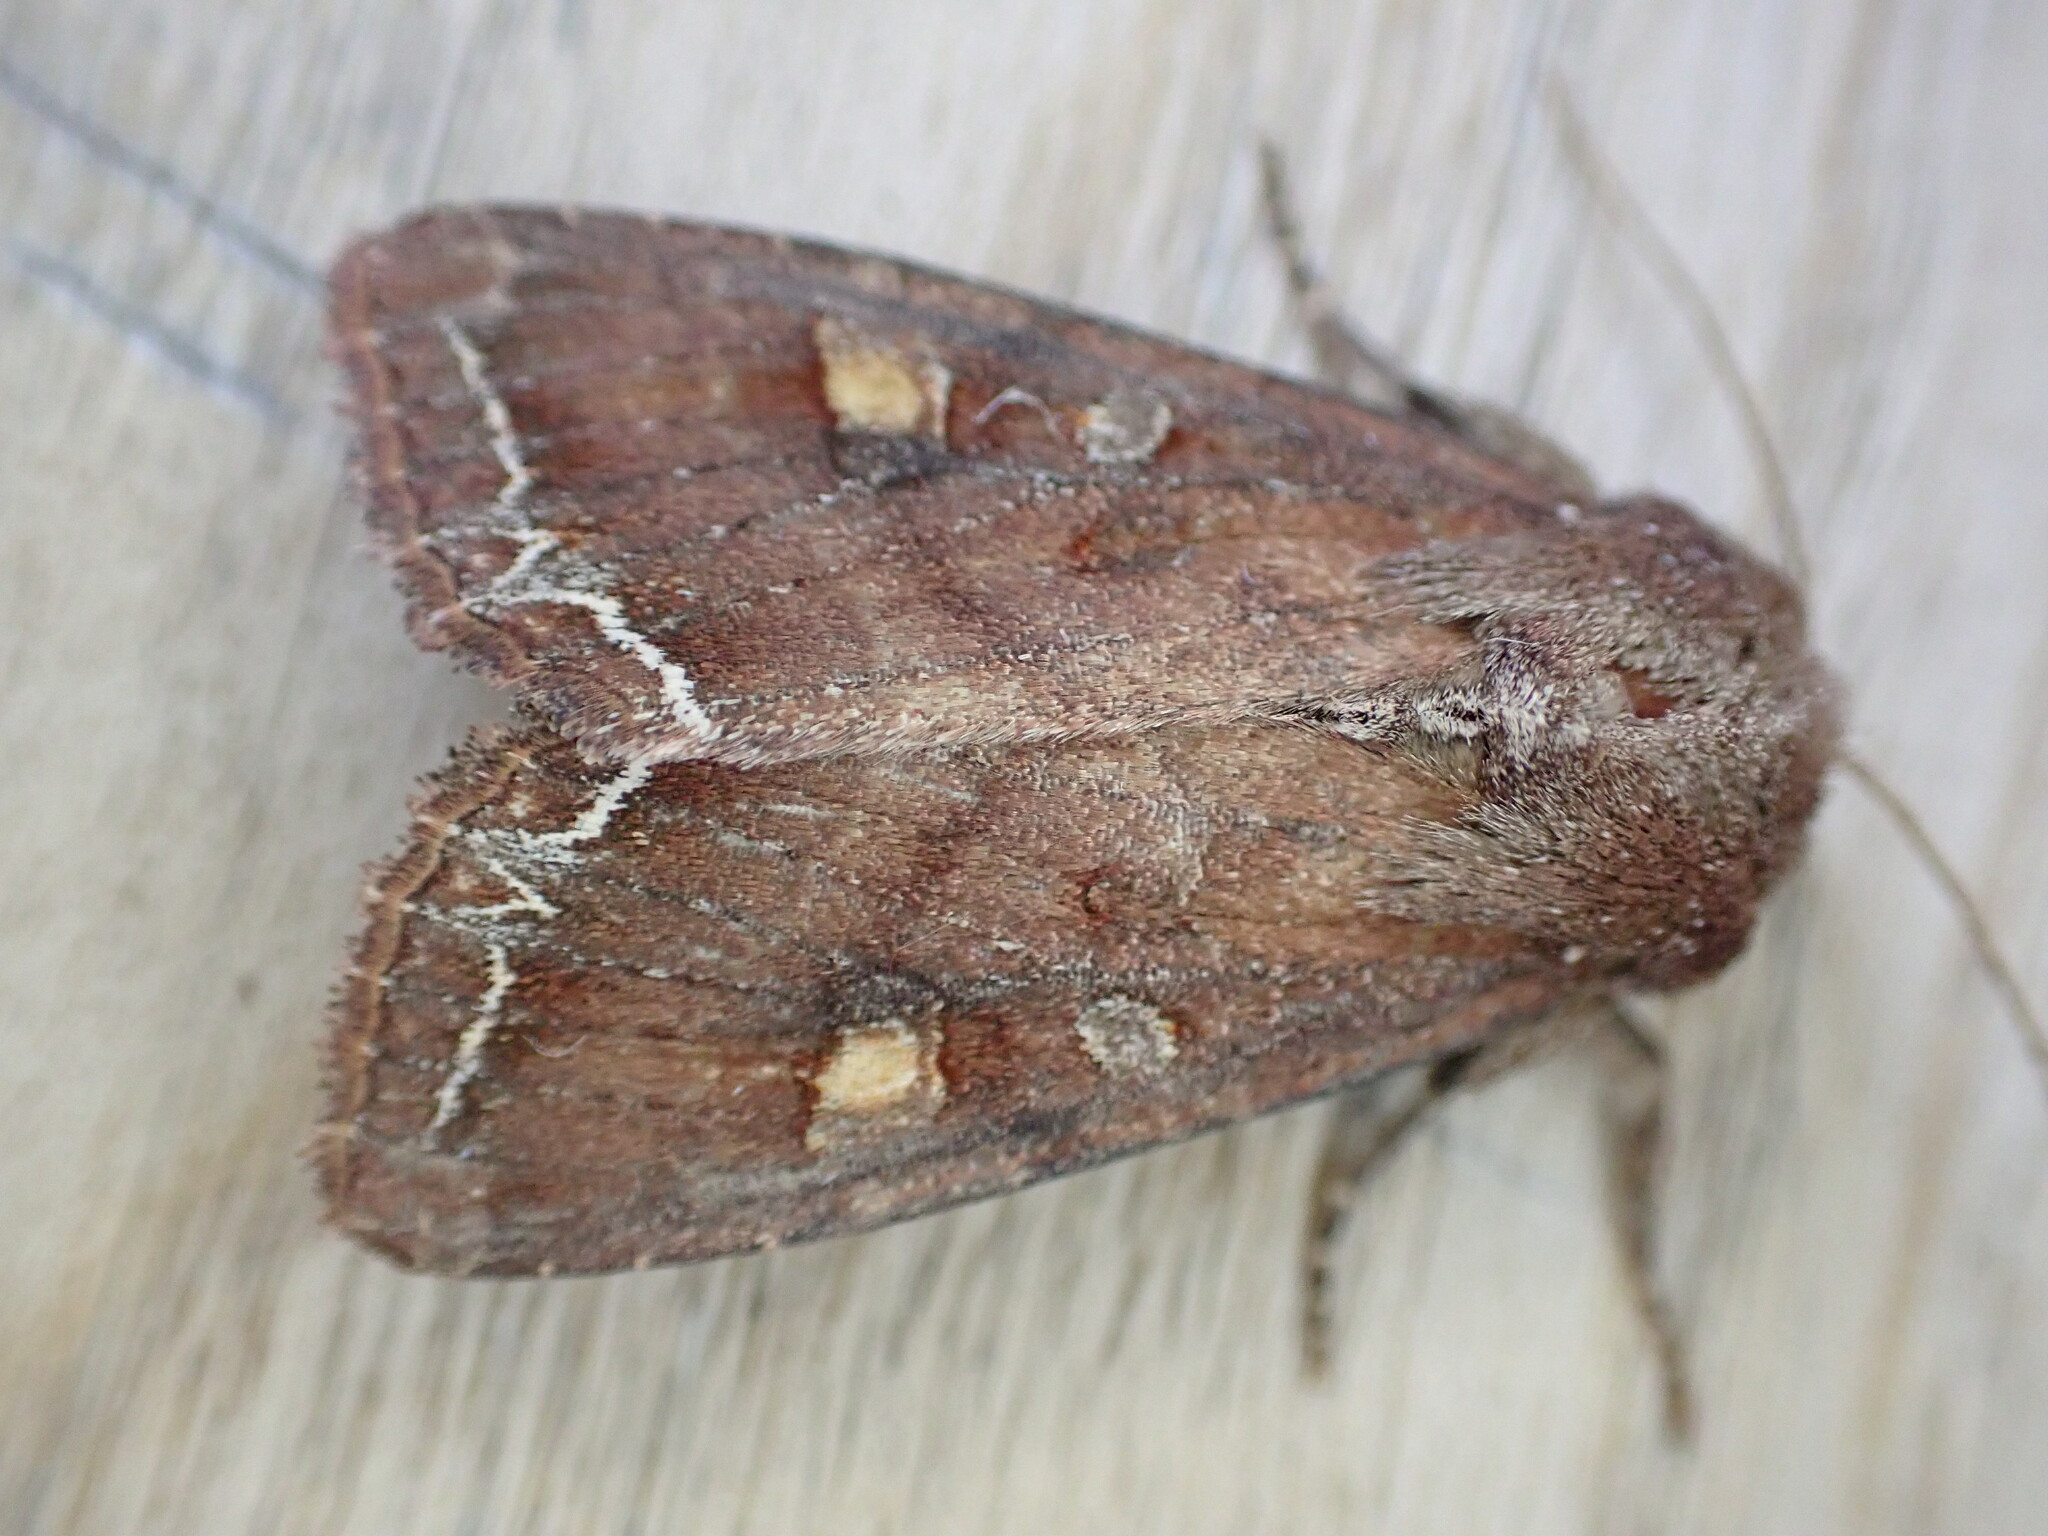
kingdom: Animalia
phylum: Arthropoda
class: Insecta
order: Lepidoptera
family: Noctuidae
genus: Lacanobia
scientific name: Lacanobia oleracea
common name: Bright-line brown-eye
